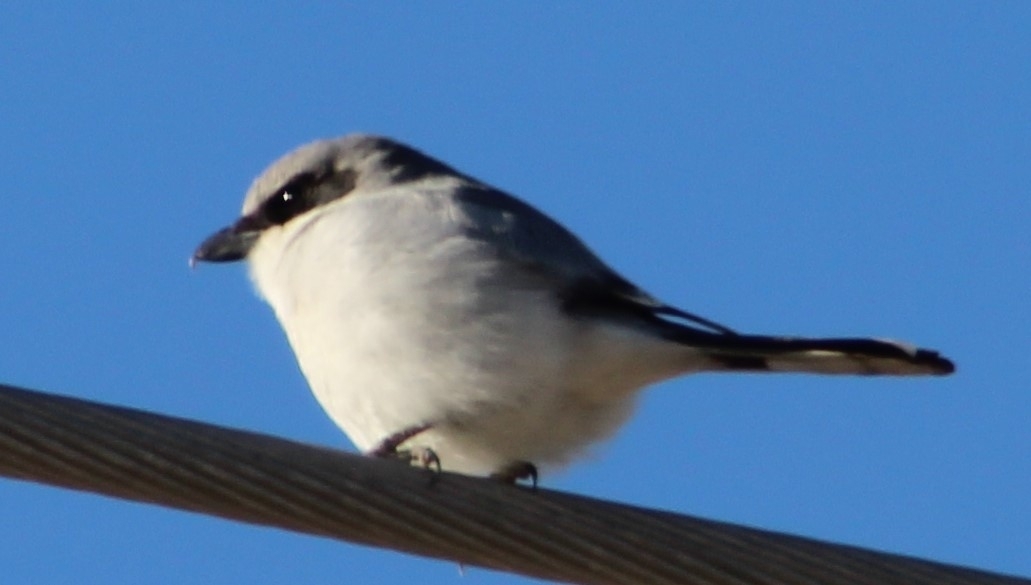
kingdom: Animalia
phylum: Chordata
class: Aves
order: Passeriformes
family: Laniidae
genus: Lanius
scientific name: Lanius ludovicianus
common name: Loggerhead shrike
